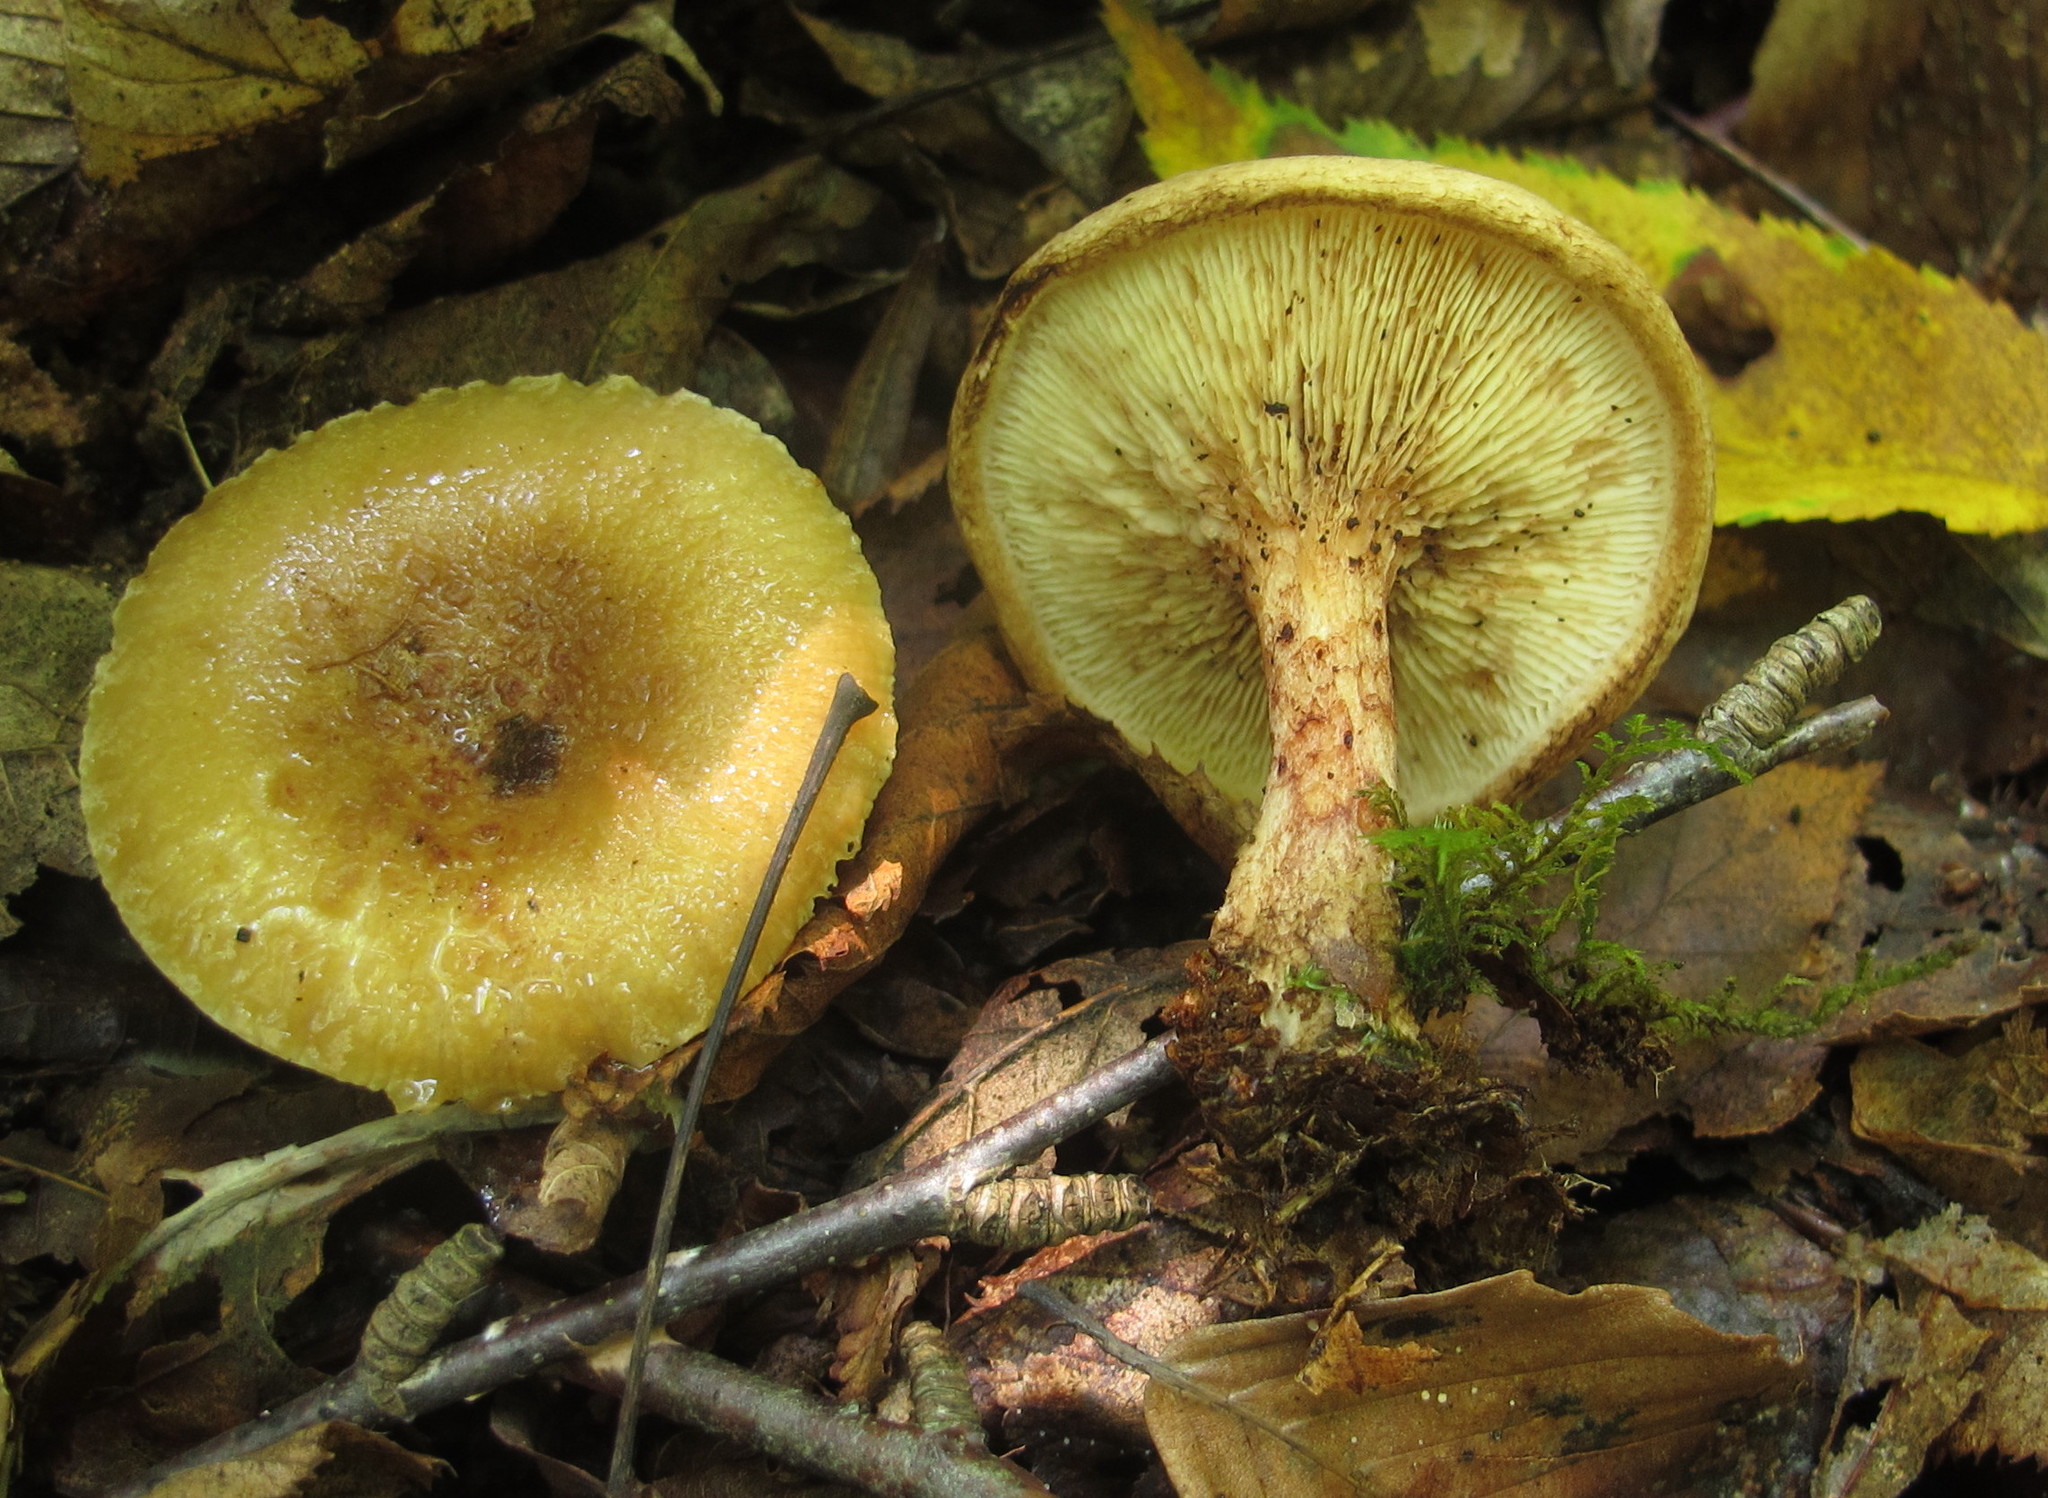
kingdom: Fungi
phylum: Basidiomycota
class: Agaricomycetes
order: Boletales
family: Paxillaceae
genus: Paxillus
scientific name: Paxillus involutus
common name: Brown roll rim
